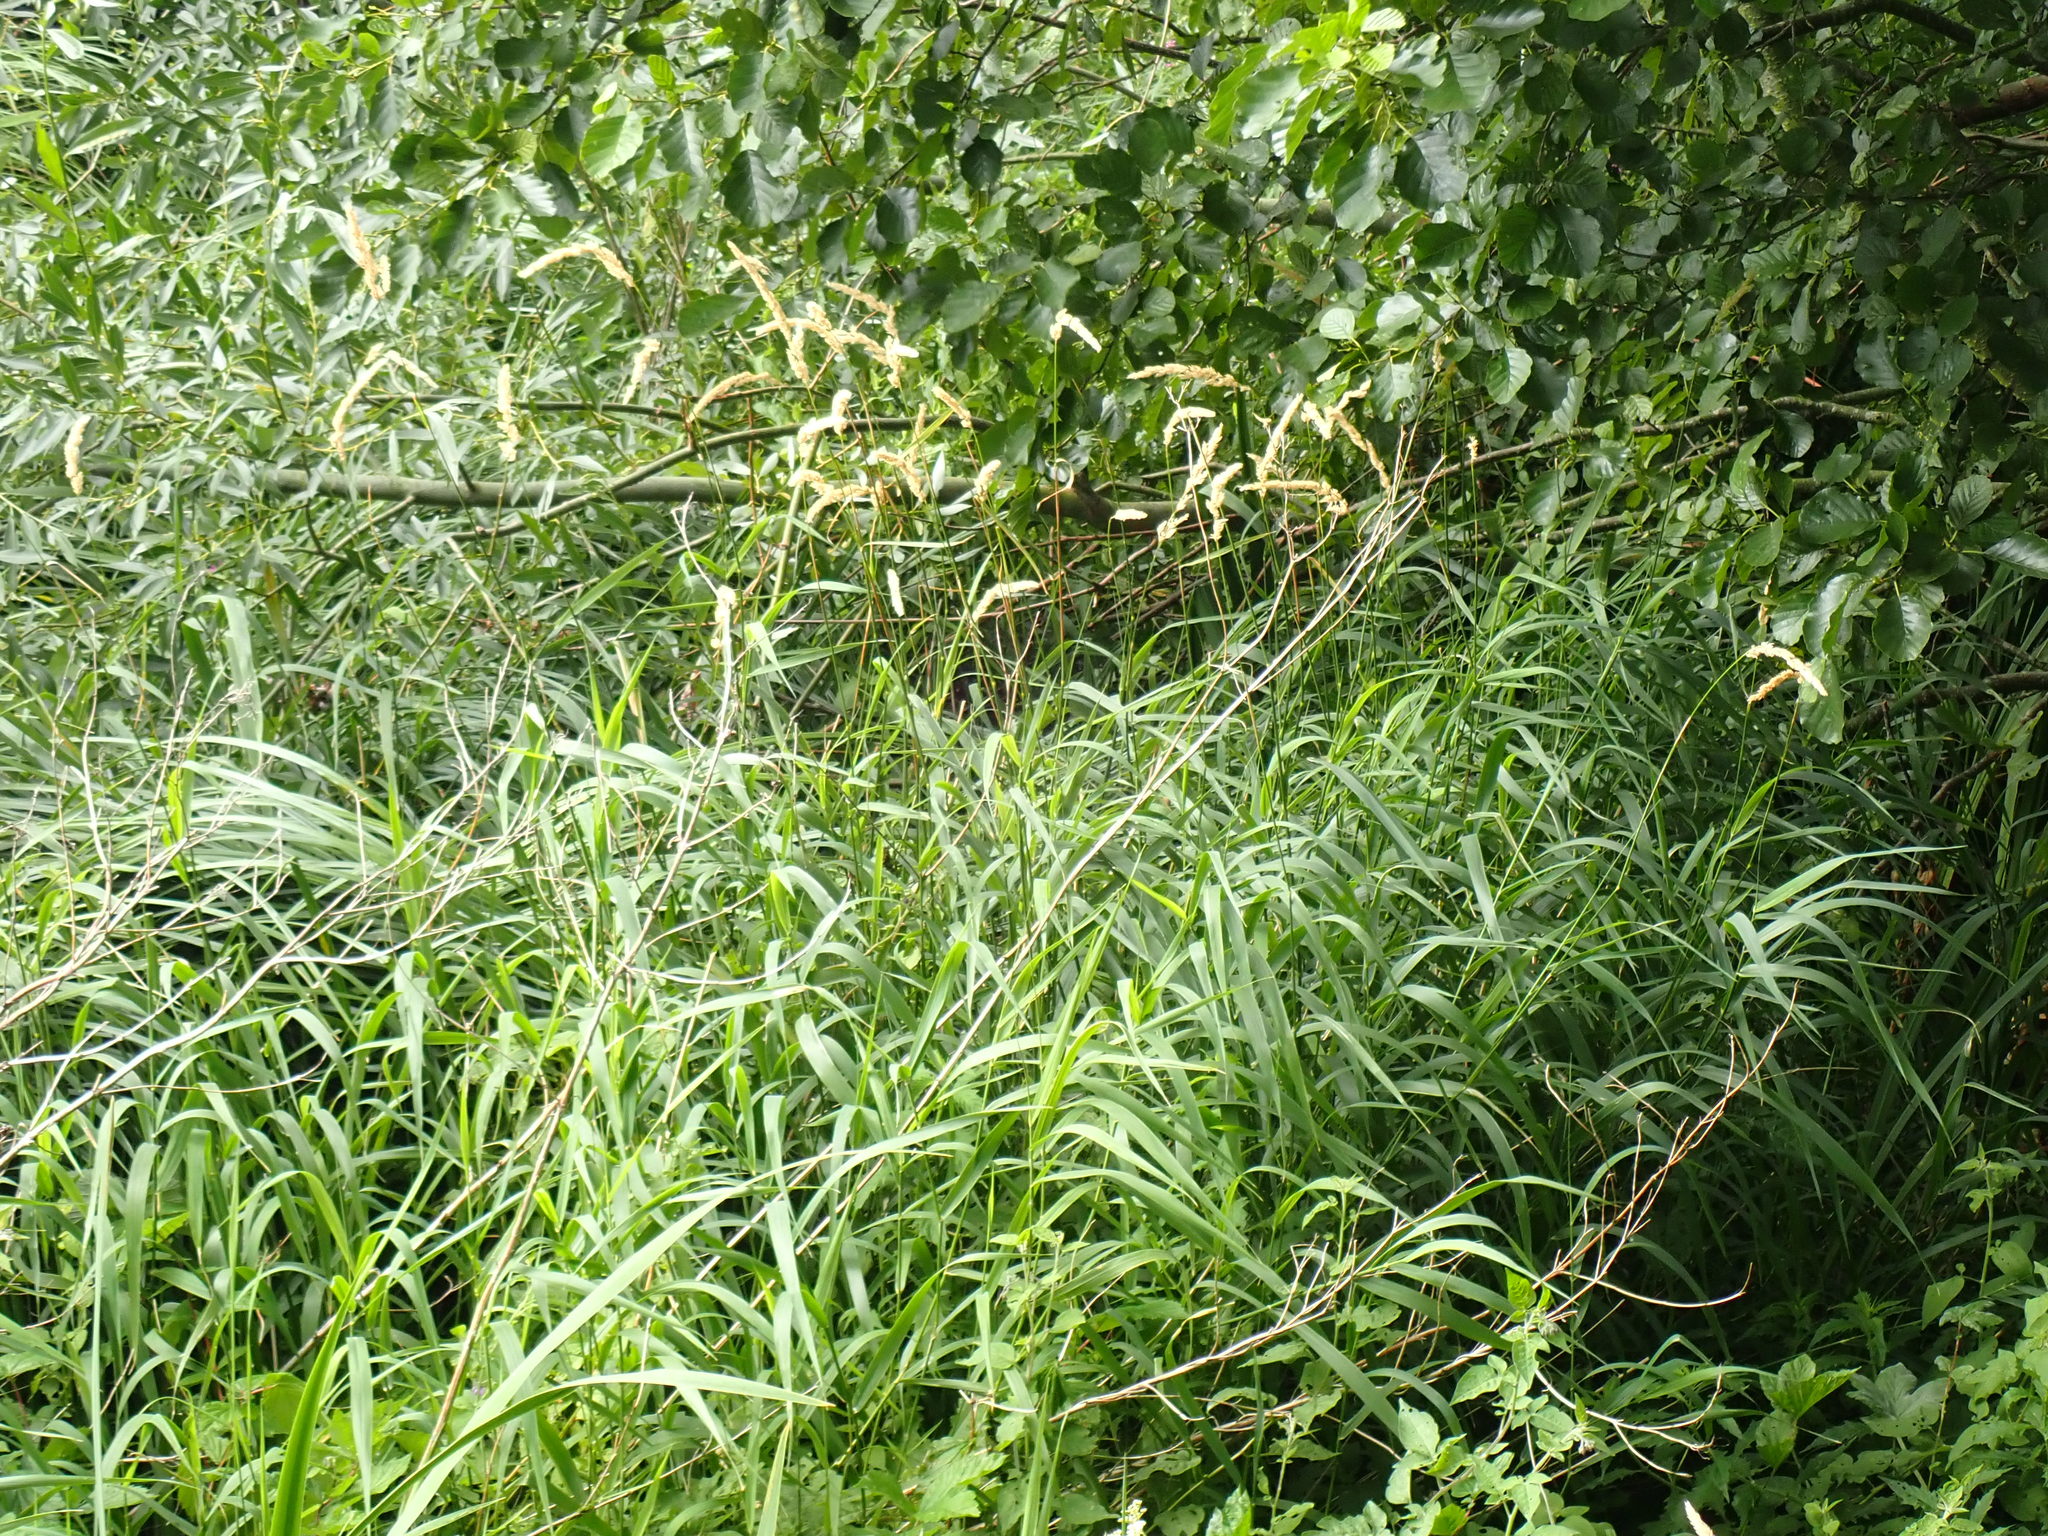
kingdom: Plantae
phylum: Tracheophyta
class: Liliopsida
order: Poales
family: Poaceae
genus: Phalaris
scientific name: Phalaris arundinacea
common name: Reed canary-grass
